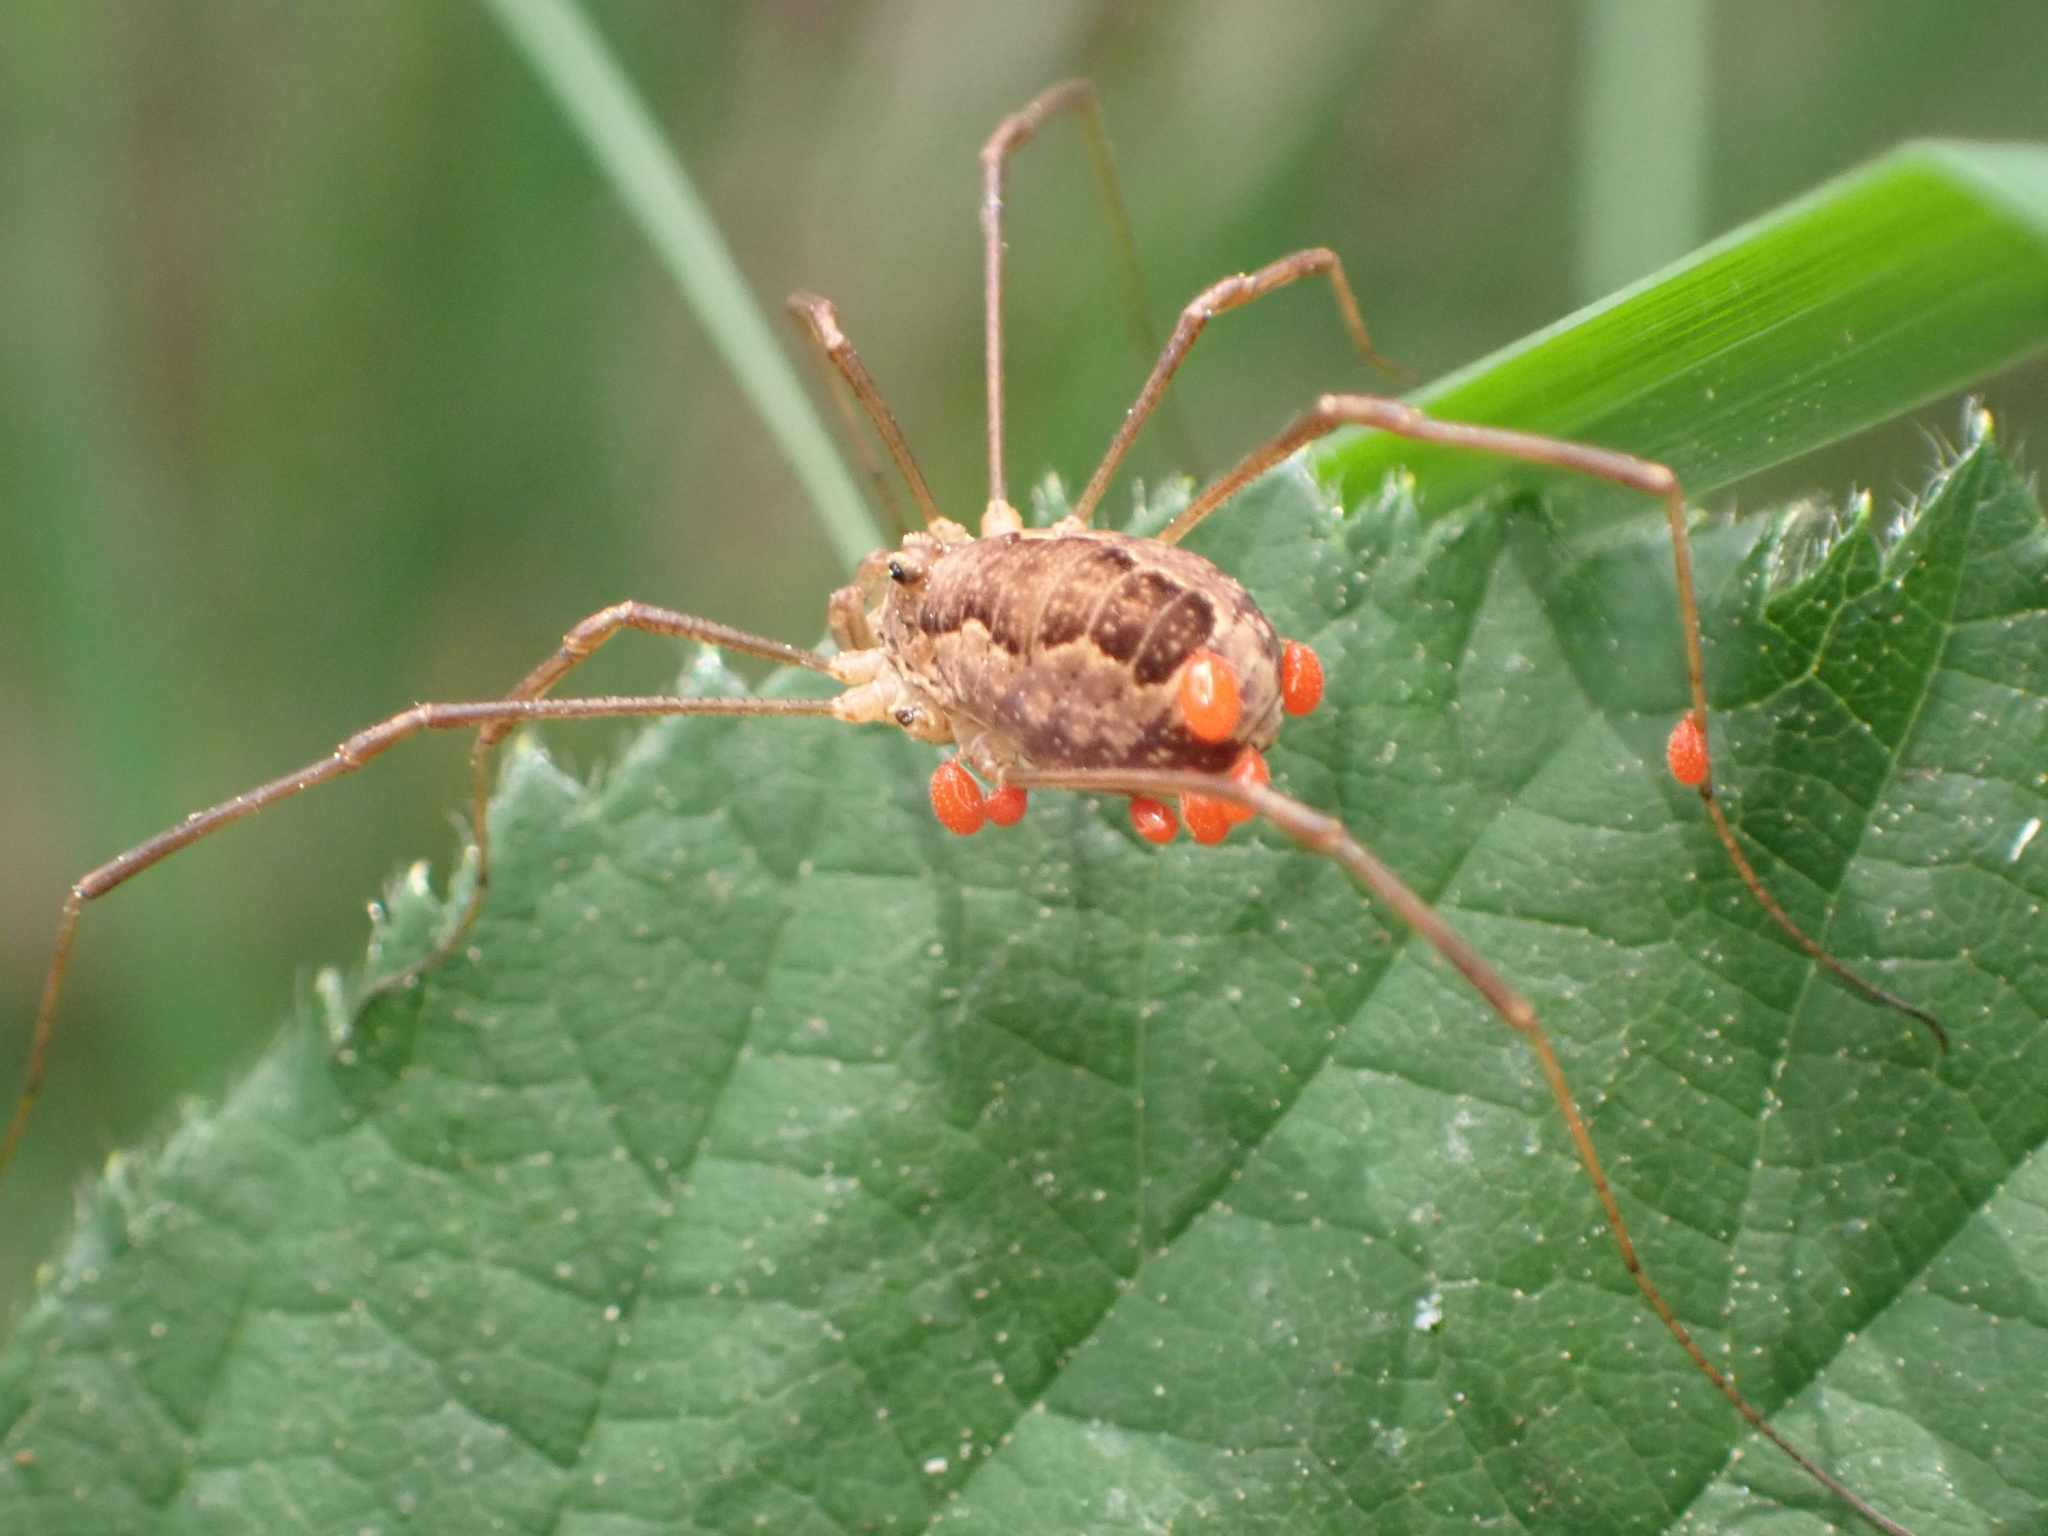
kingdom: Animalia
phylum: Arthropoda
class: Arachnida
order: Opiliones
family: Phalangiidae
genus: Rilaena
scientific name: Rilaena triangularis
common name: Spring harvestman
